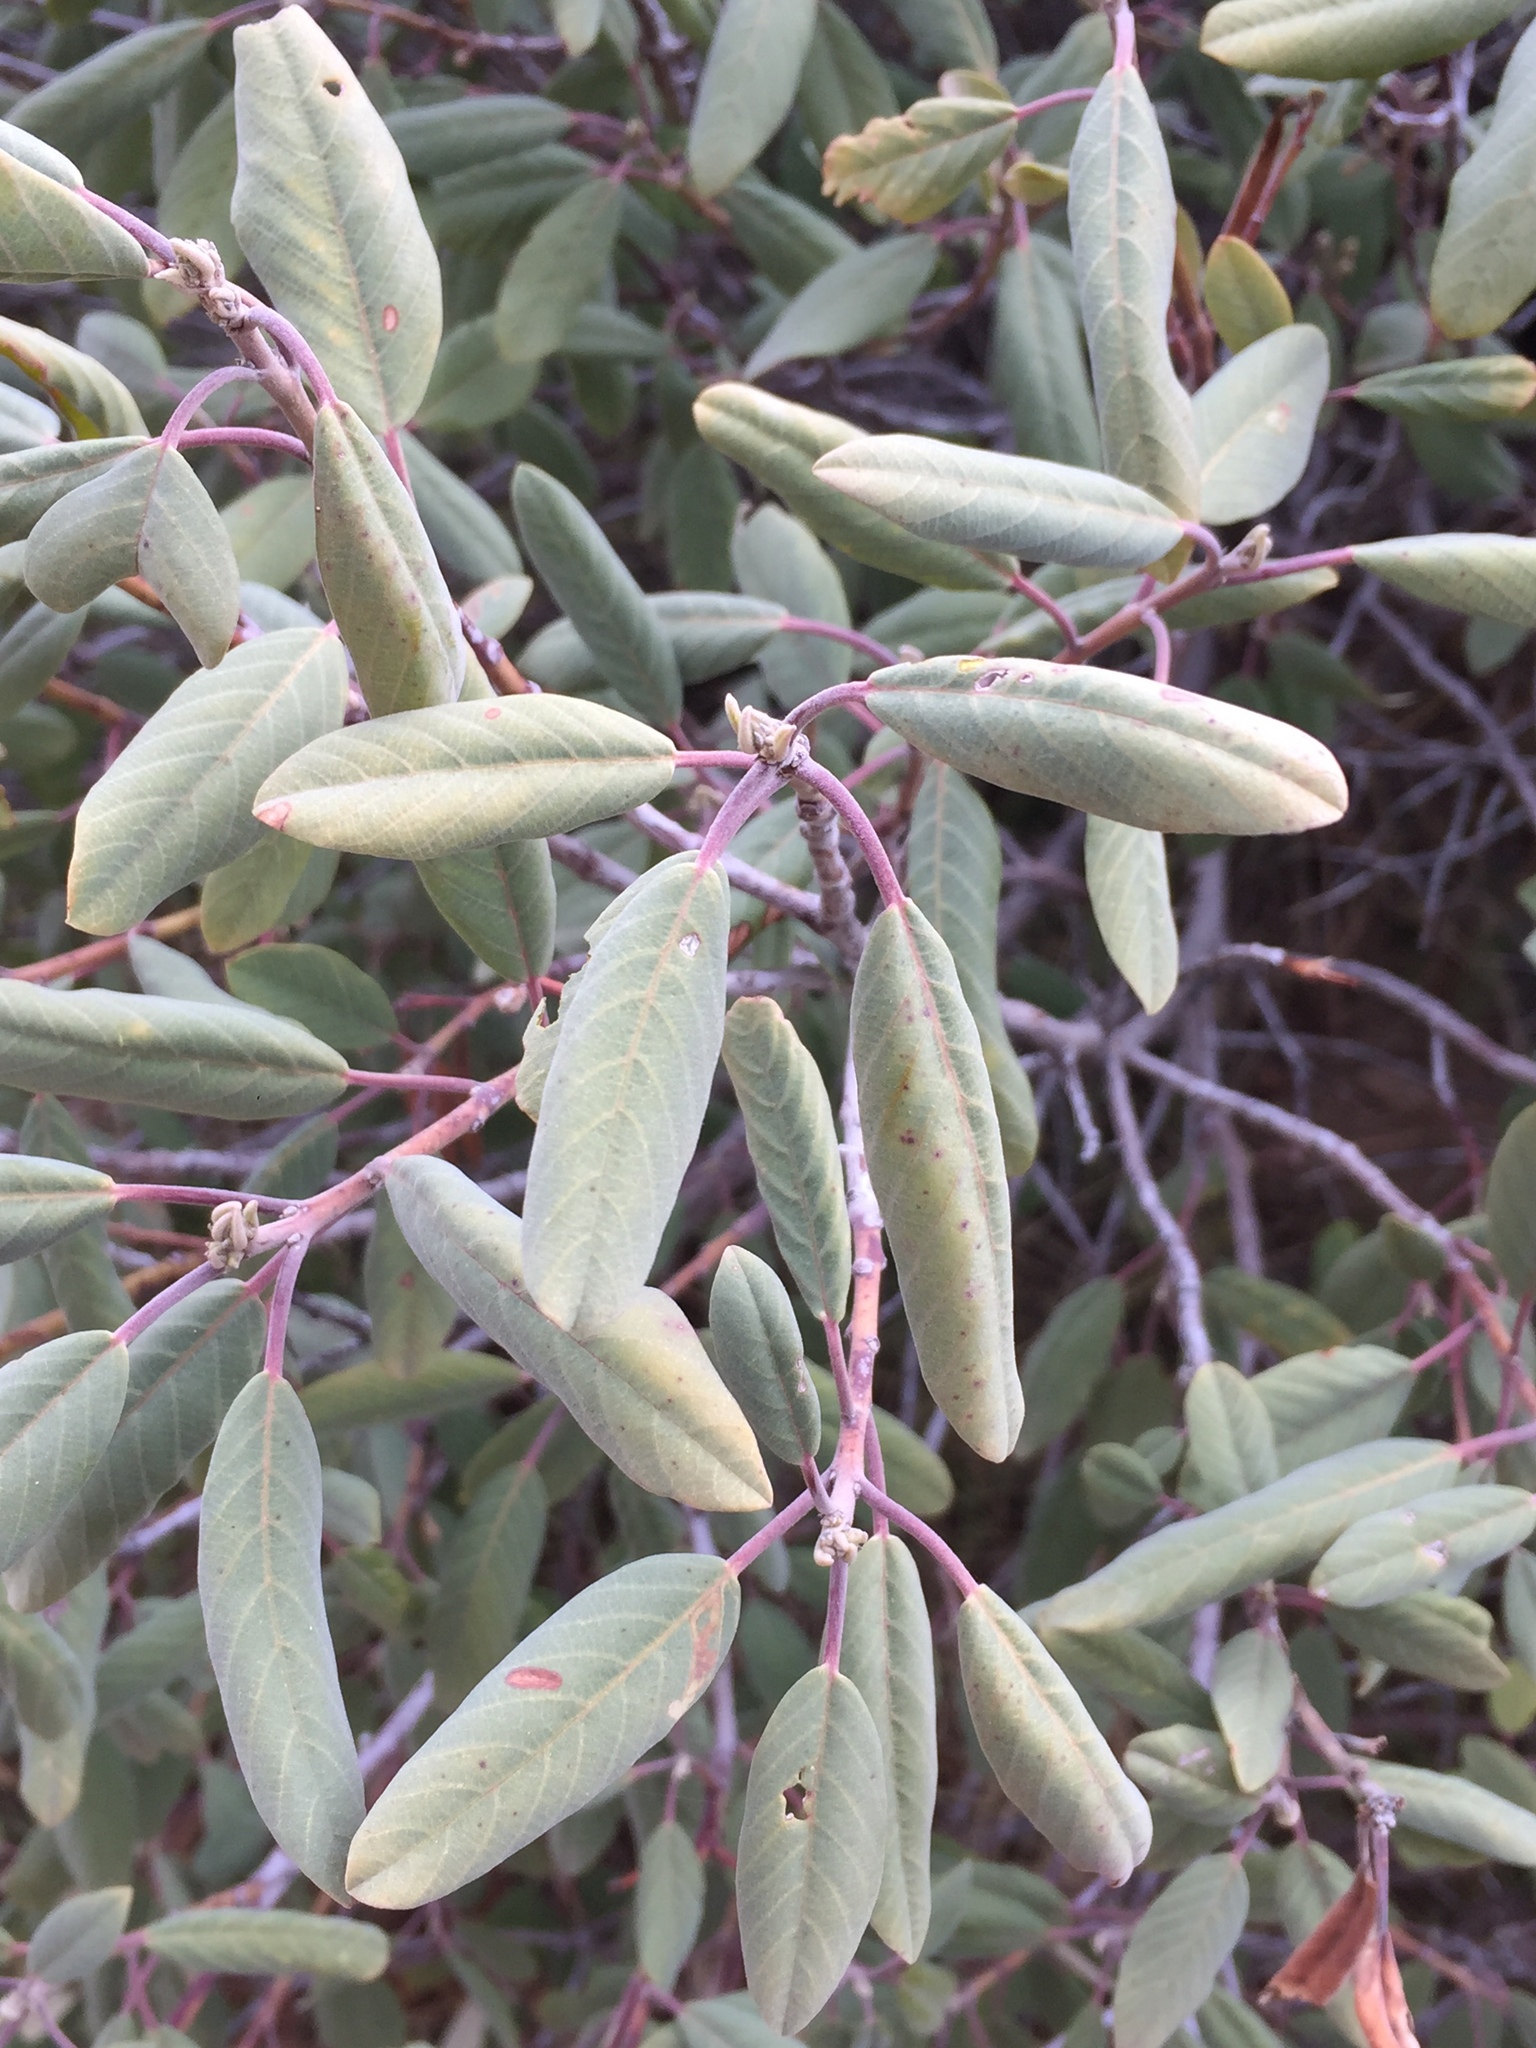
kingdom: Plantae
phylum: Tracheophyta
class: Magnoliopsida
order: Rosales
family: Rhamnaceae
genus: Frangula
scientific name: Frangula californica
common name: California buckthorn
